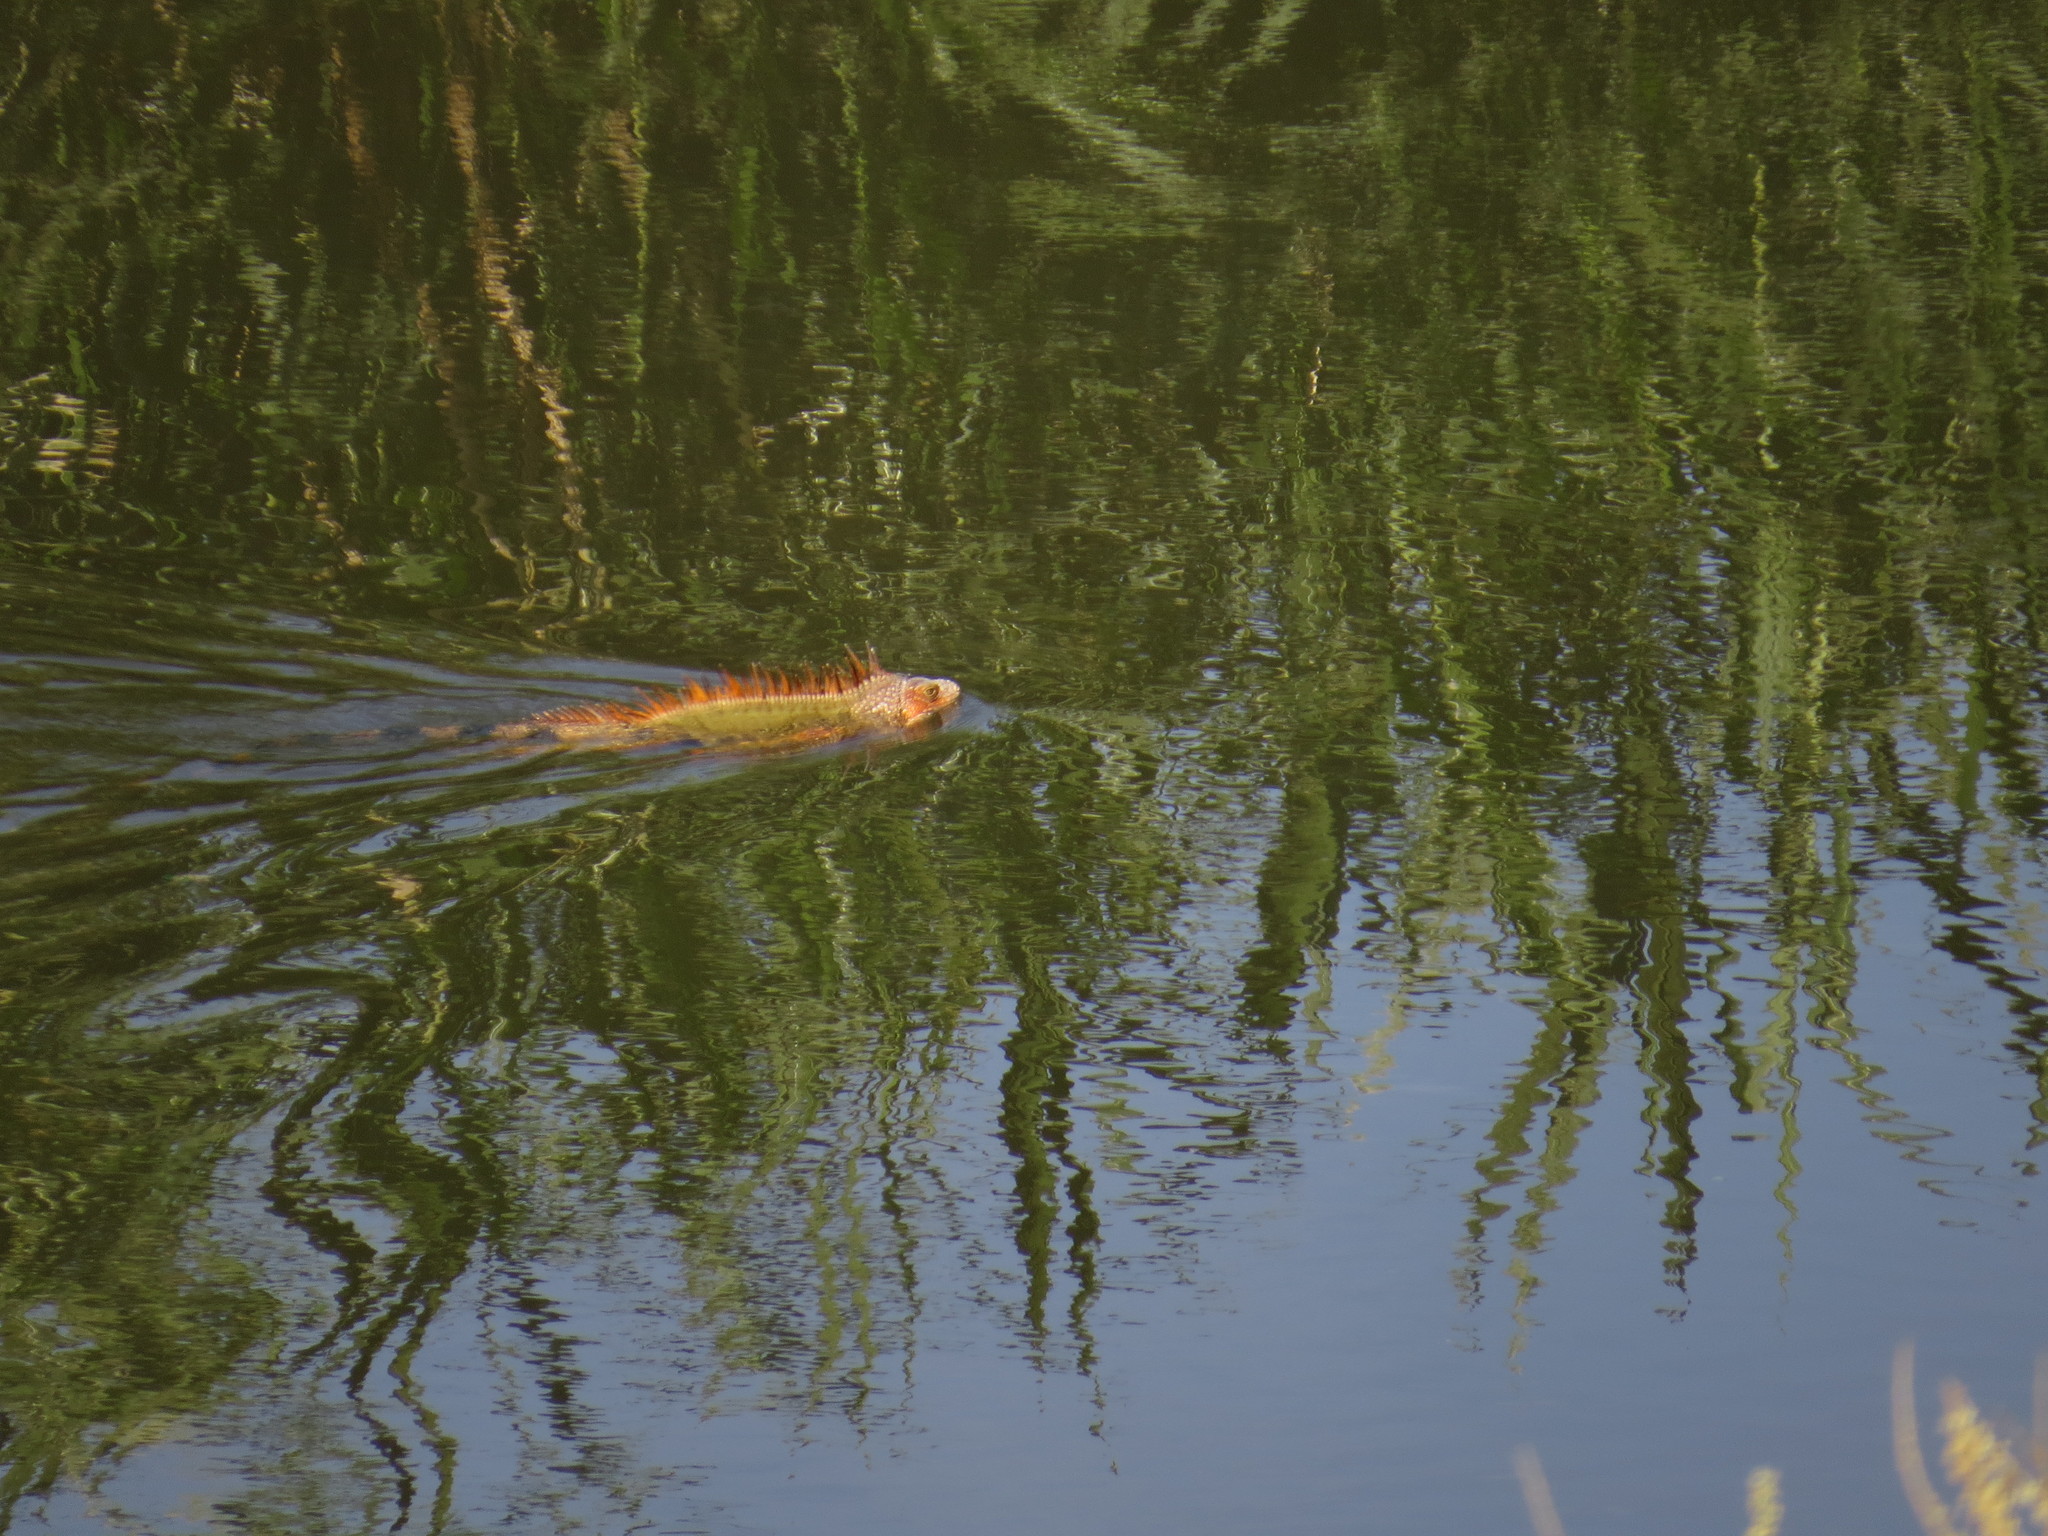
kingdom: Animalia
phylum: Chordata
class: Squamata
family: Iguanidae
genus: Iguana
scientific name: Iguana iguana
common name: Green iguana
